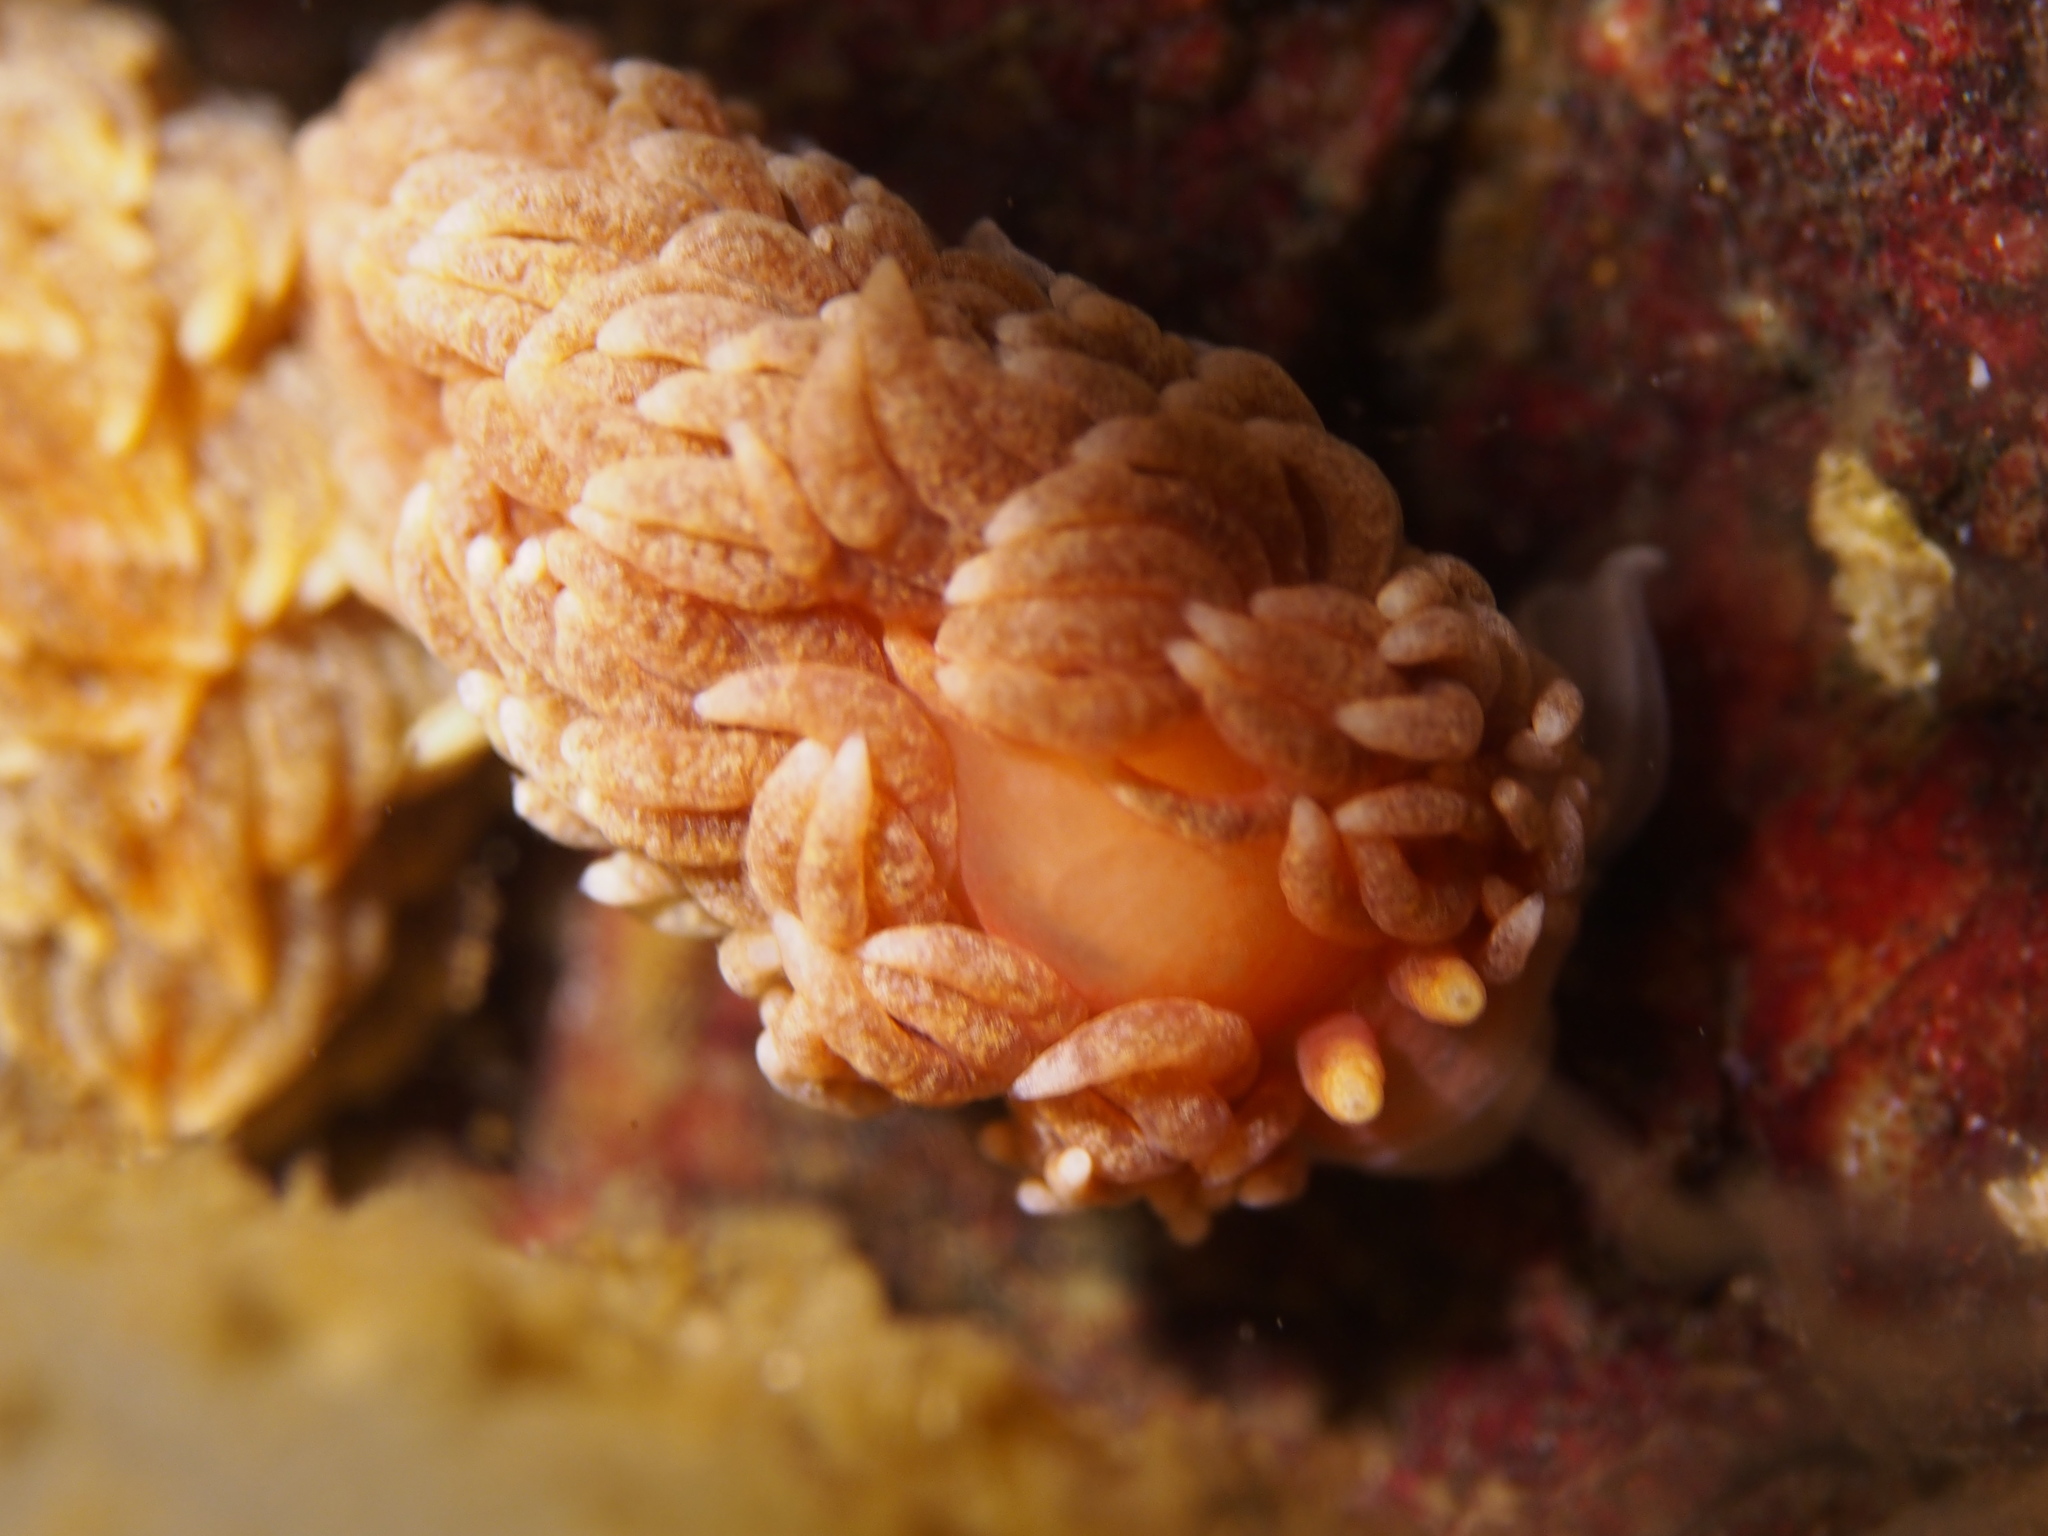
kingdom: Animalia
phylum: Mollusca
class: Gastropoda
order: Nudibranchia
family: Aeolidiidae
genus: Aeolidiella
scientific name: Aeolidiella glauca
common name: Orange-brown aeolid
